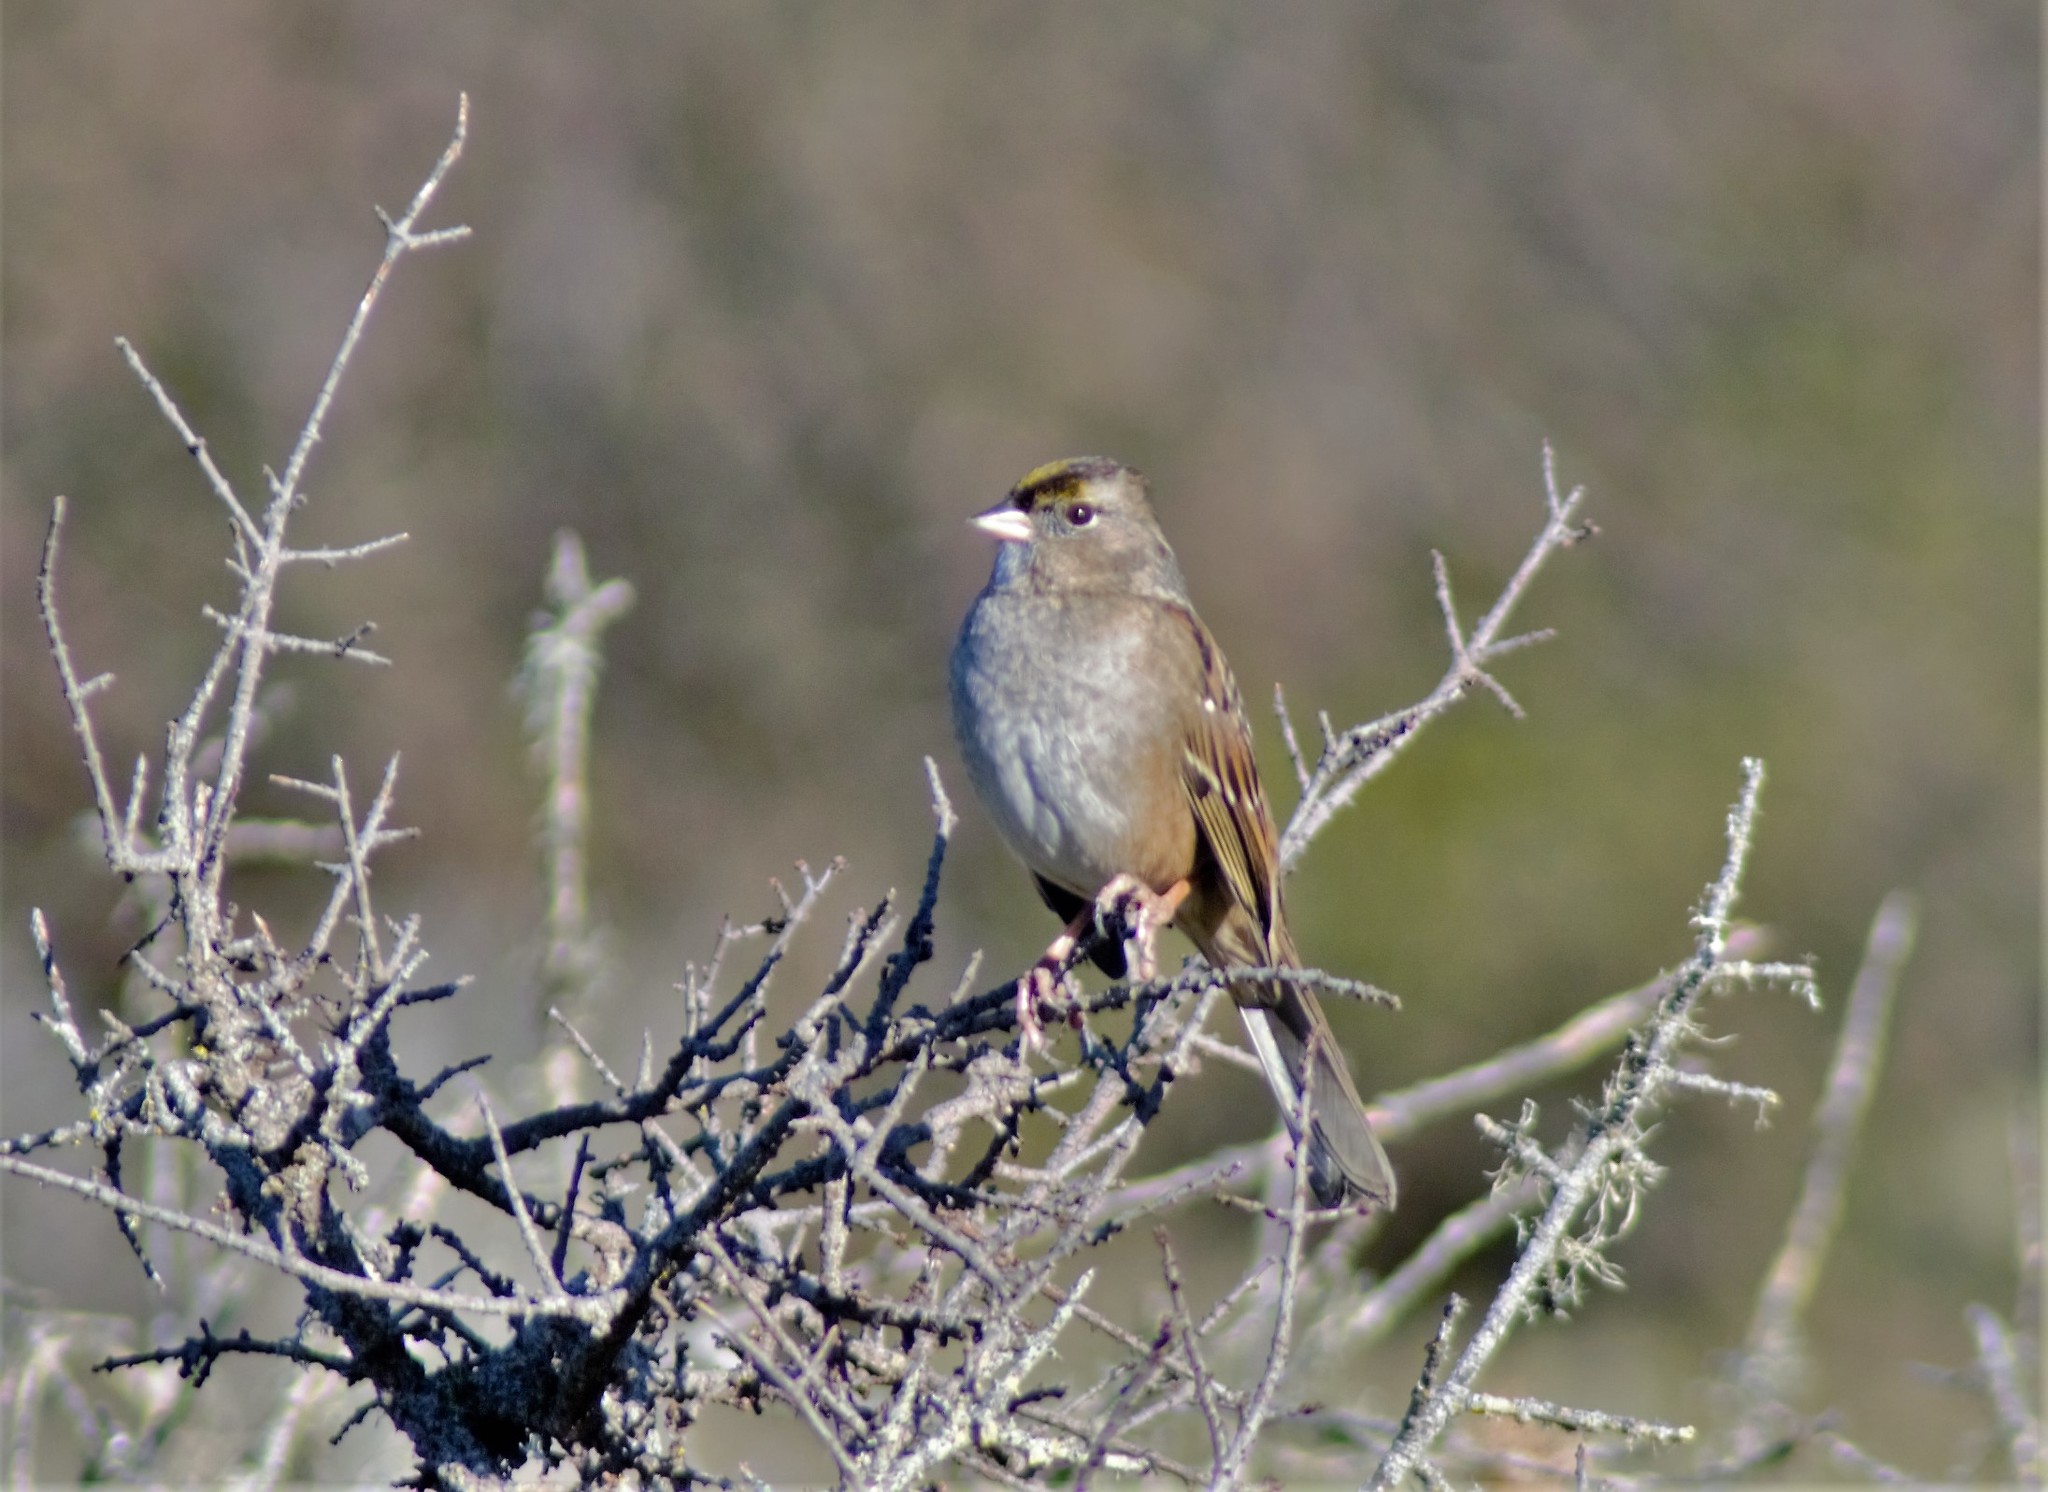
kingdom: Animalia
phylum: Chordata
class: Aves
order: Passeriformes
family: Passerellidae
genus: Zonotrichia
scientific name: Zonotrichia atricapilla
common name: Golden-crowned sparrow
